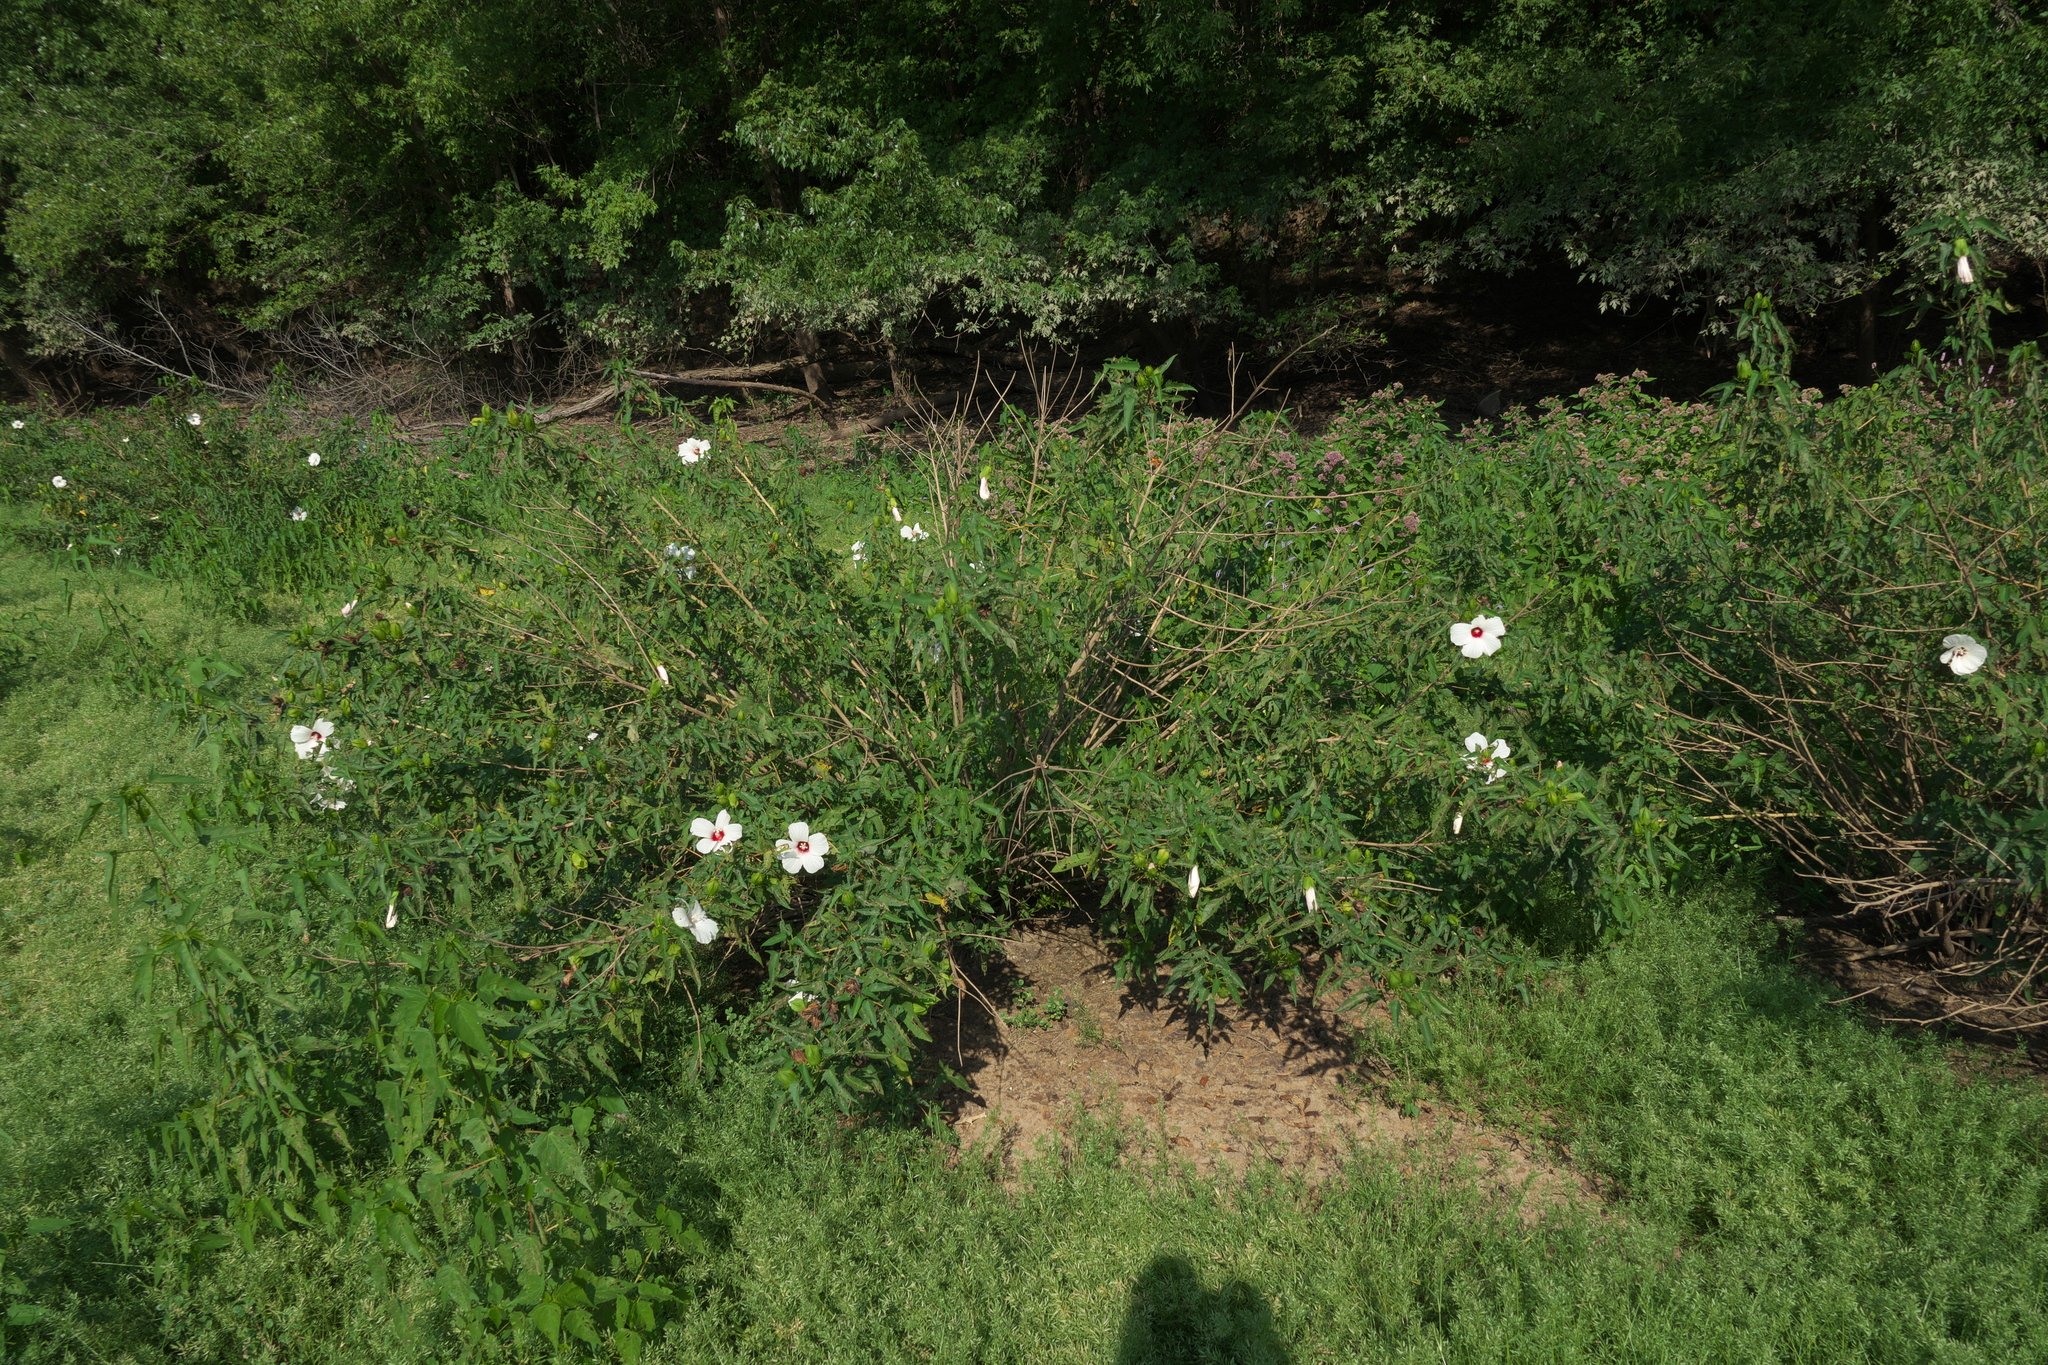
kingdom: Plantae
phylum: Tracheophyta
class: Magnoliopsida
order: Malvales
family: Malvaceae
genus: Hibiscus
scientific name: Hibiscus laevis
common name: Scarlet rose-mallow
